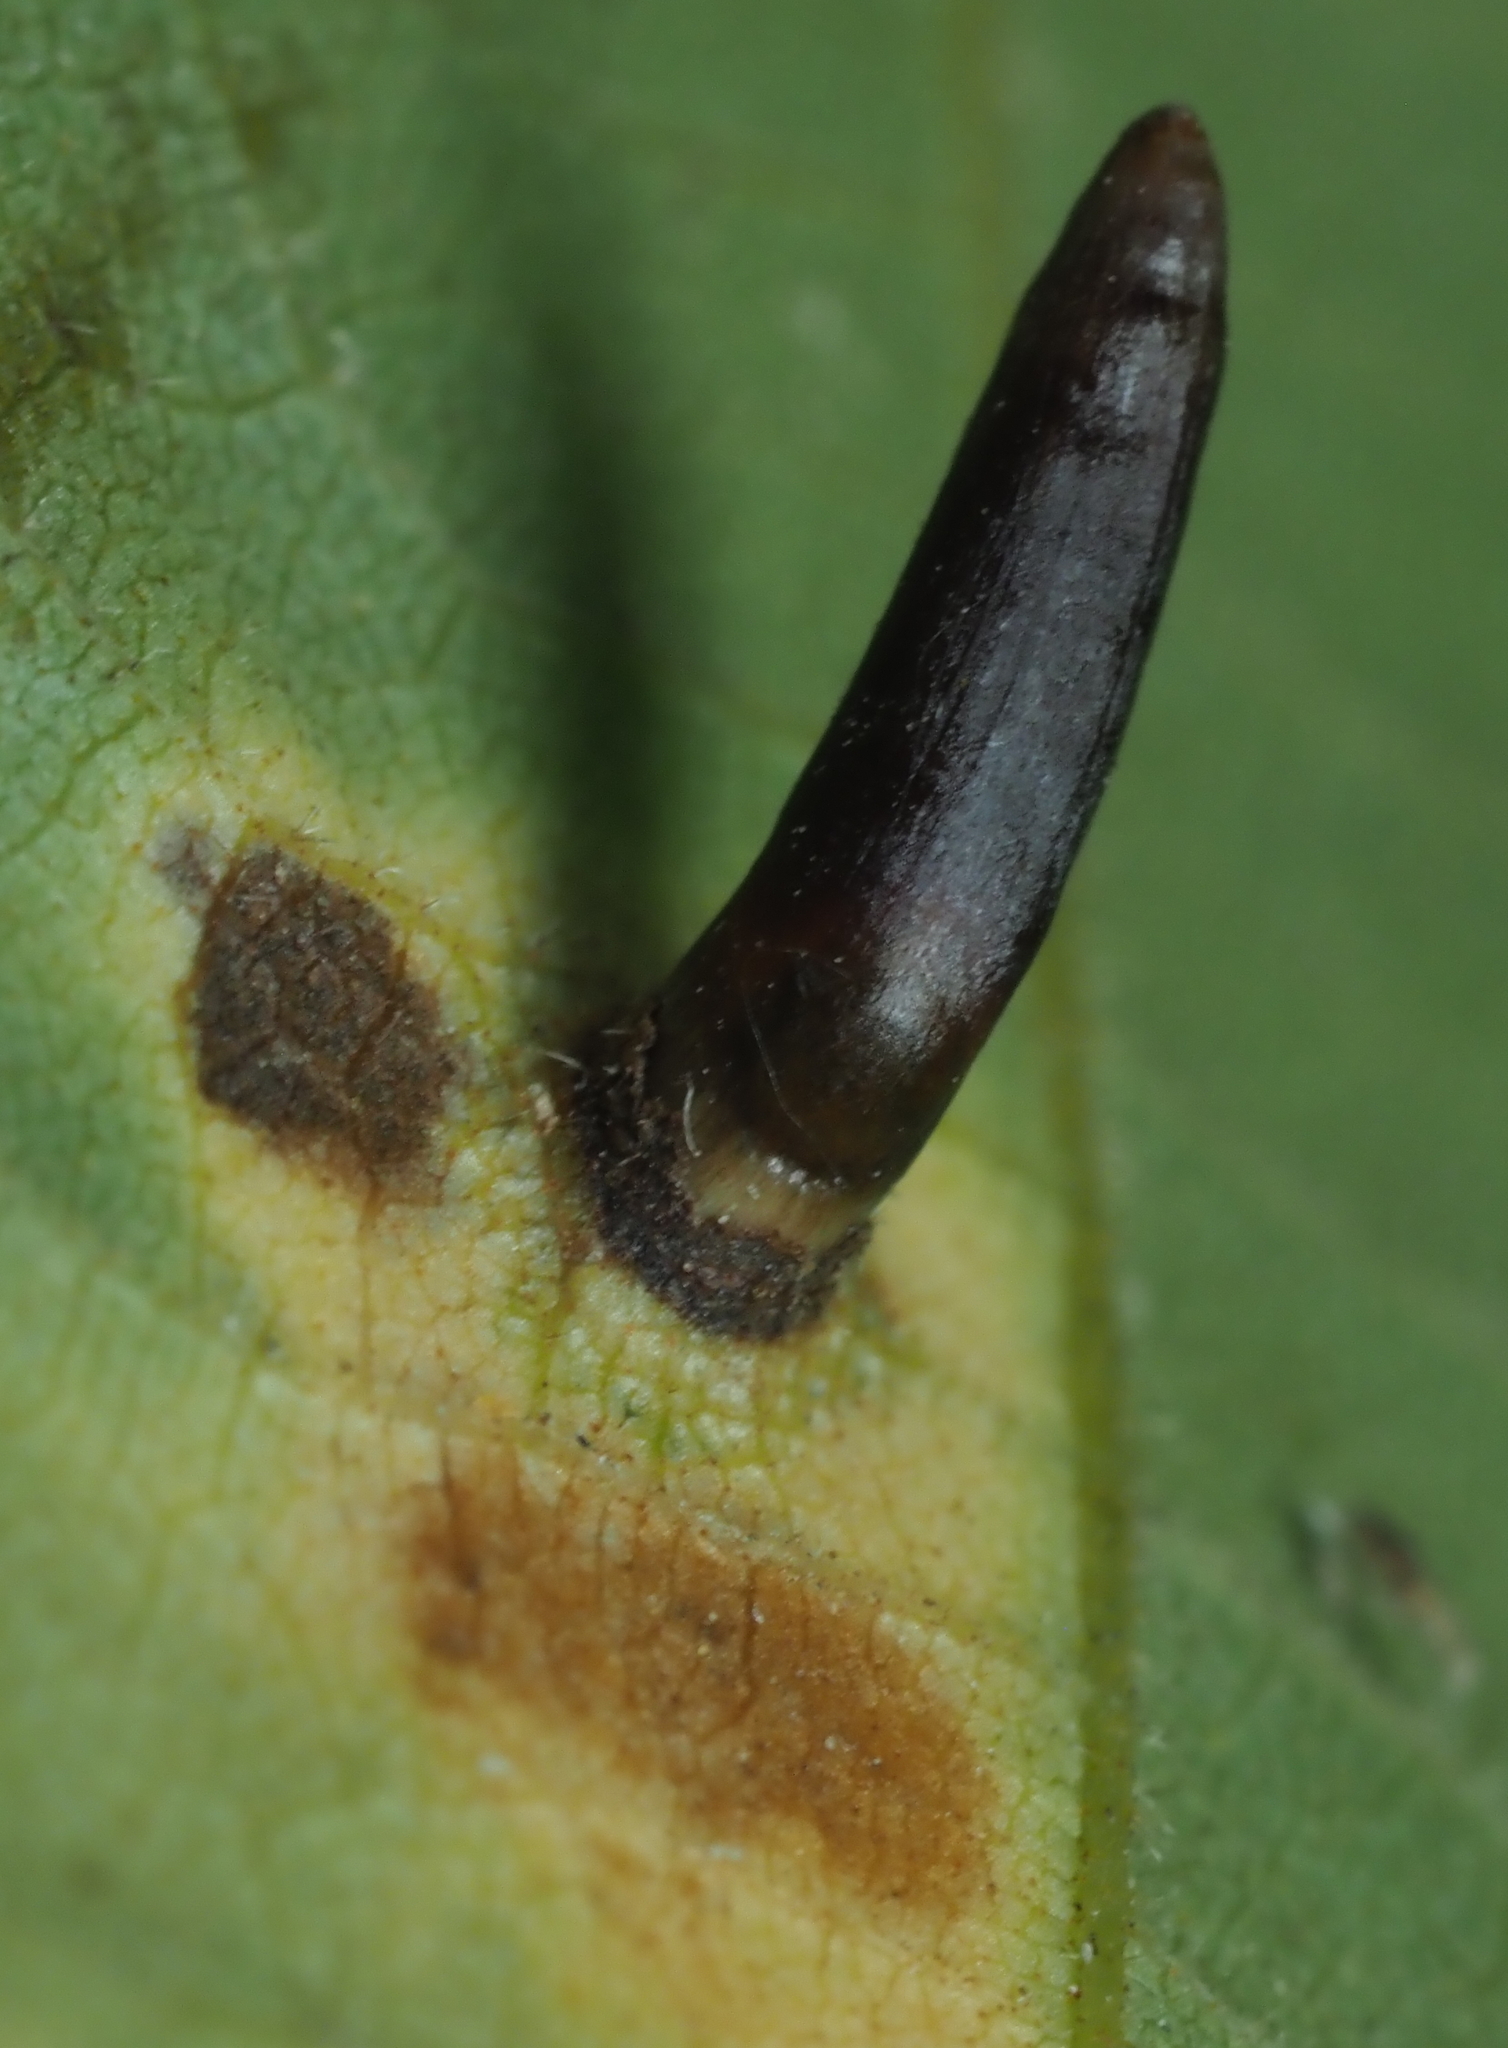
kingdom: Animalia
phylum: Arthropoda
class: Insecta
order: Diptera
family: Cecidomyiidae
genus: Caryomyia
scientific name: Caryomyia subulata
